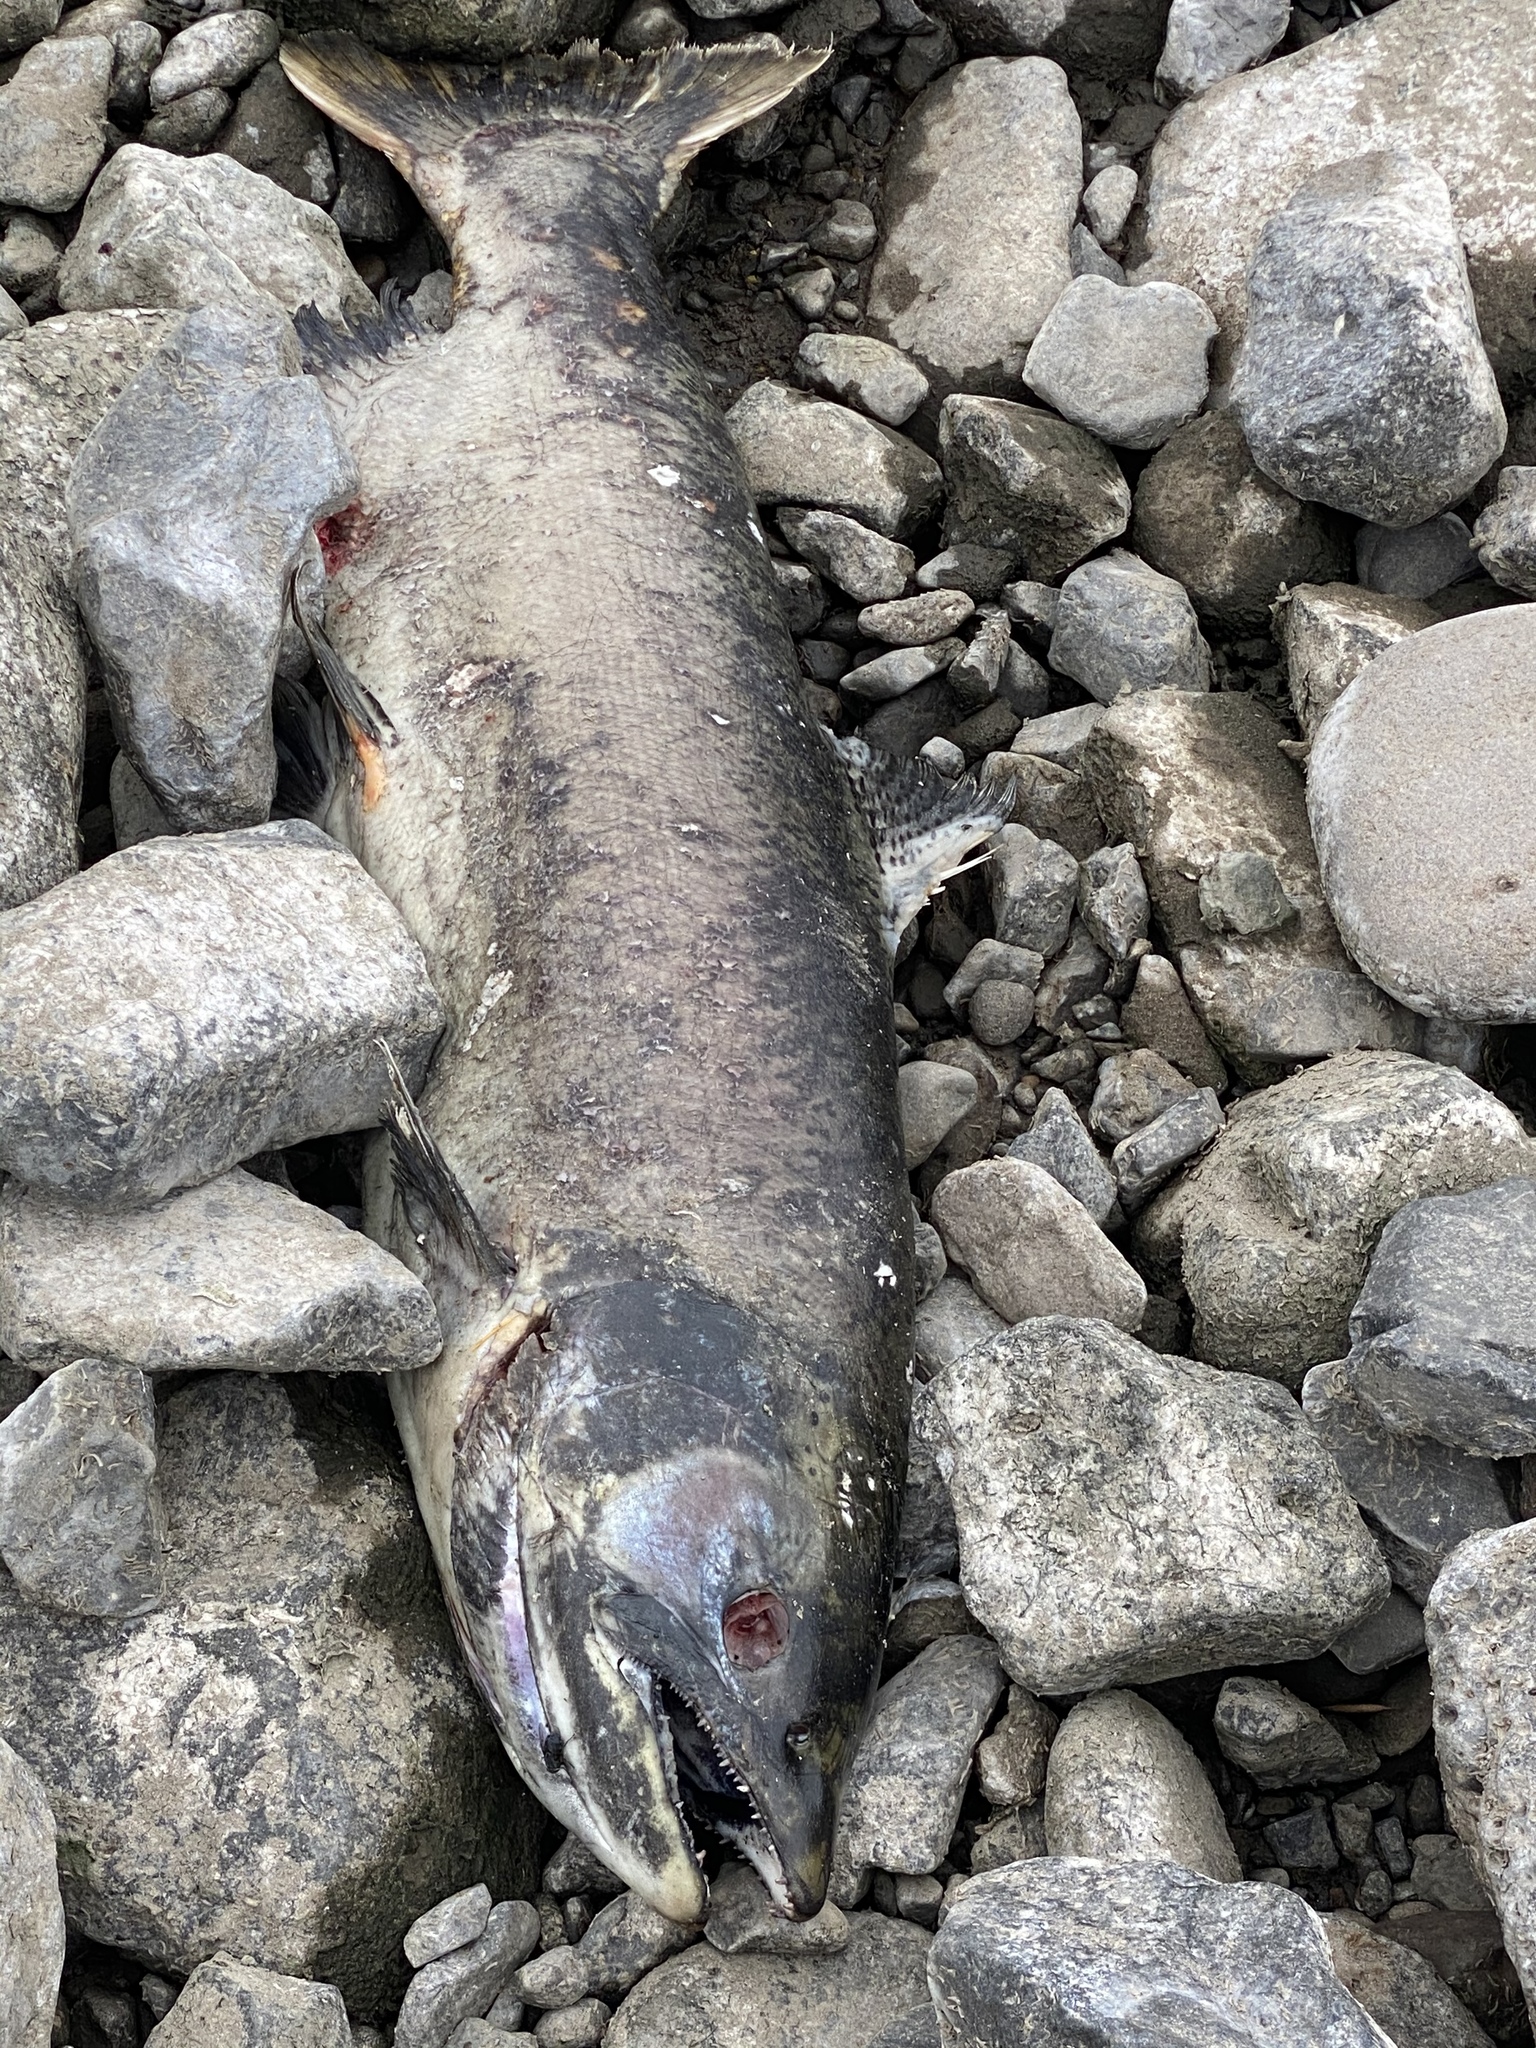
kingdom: Animalia
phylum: Chordata
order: Salmoniformes
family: Salmonidae
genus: Oncorhynchus
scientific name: Oncorhynchus tshawytscha
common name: Chinook salmon
